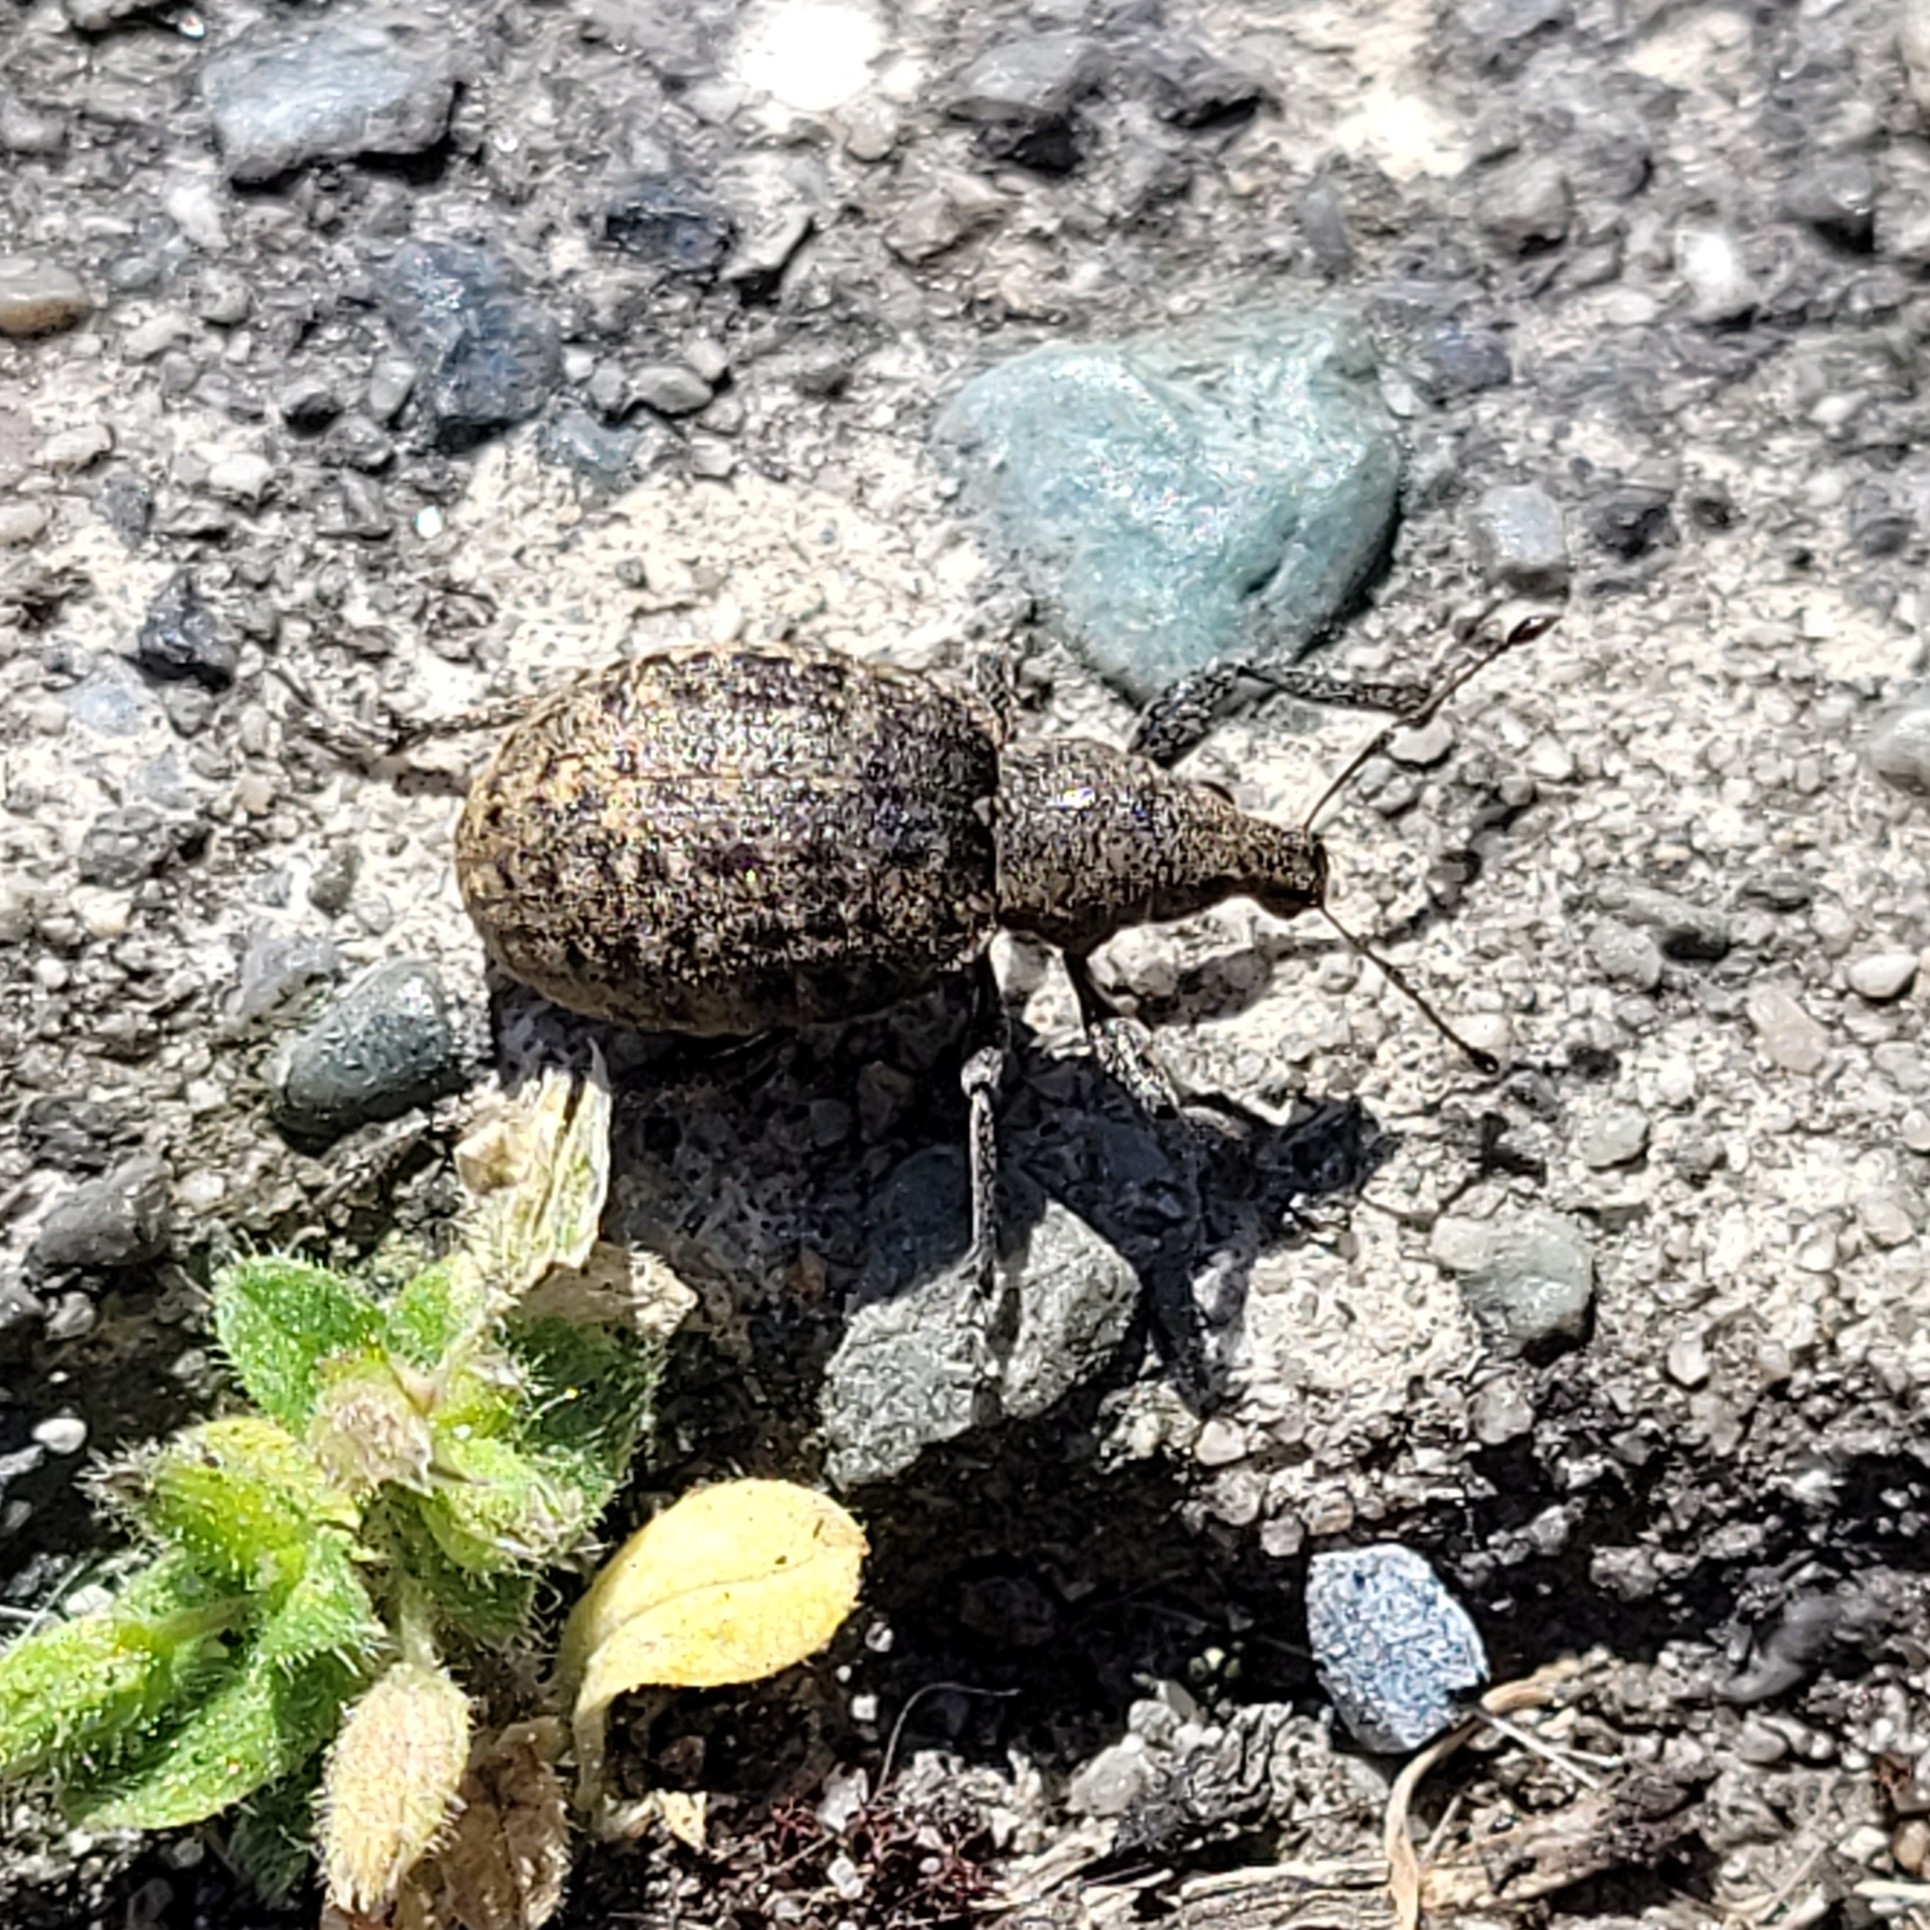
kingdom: Animalia
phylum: Arthropoda
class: Insecta
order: Coleoptera
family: Curculionidae
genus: Liophloeus
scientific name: Liophloeus tessulatus
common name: Weevil
